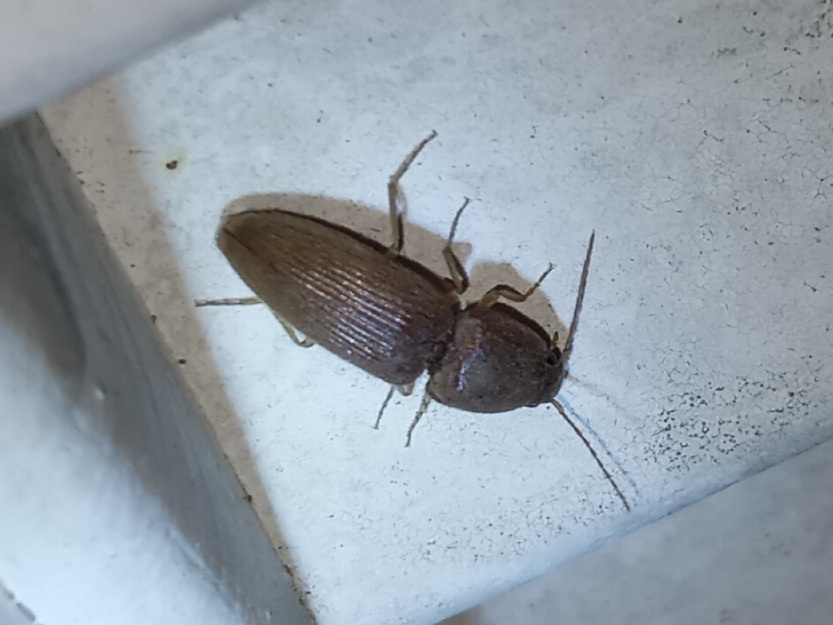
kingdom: Animalia
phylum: Arthropoda
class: Insecta
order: Coleoptera
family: Elateridae
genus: Monocrepidius
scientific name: Monocrepidius scissus
